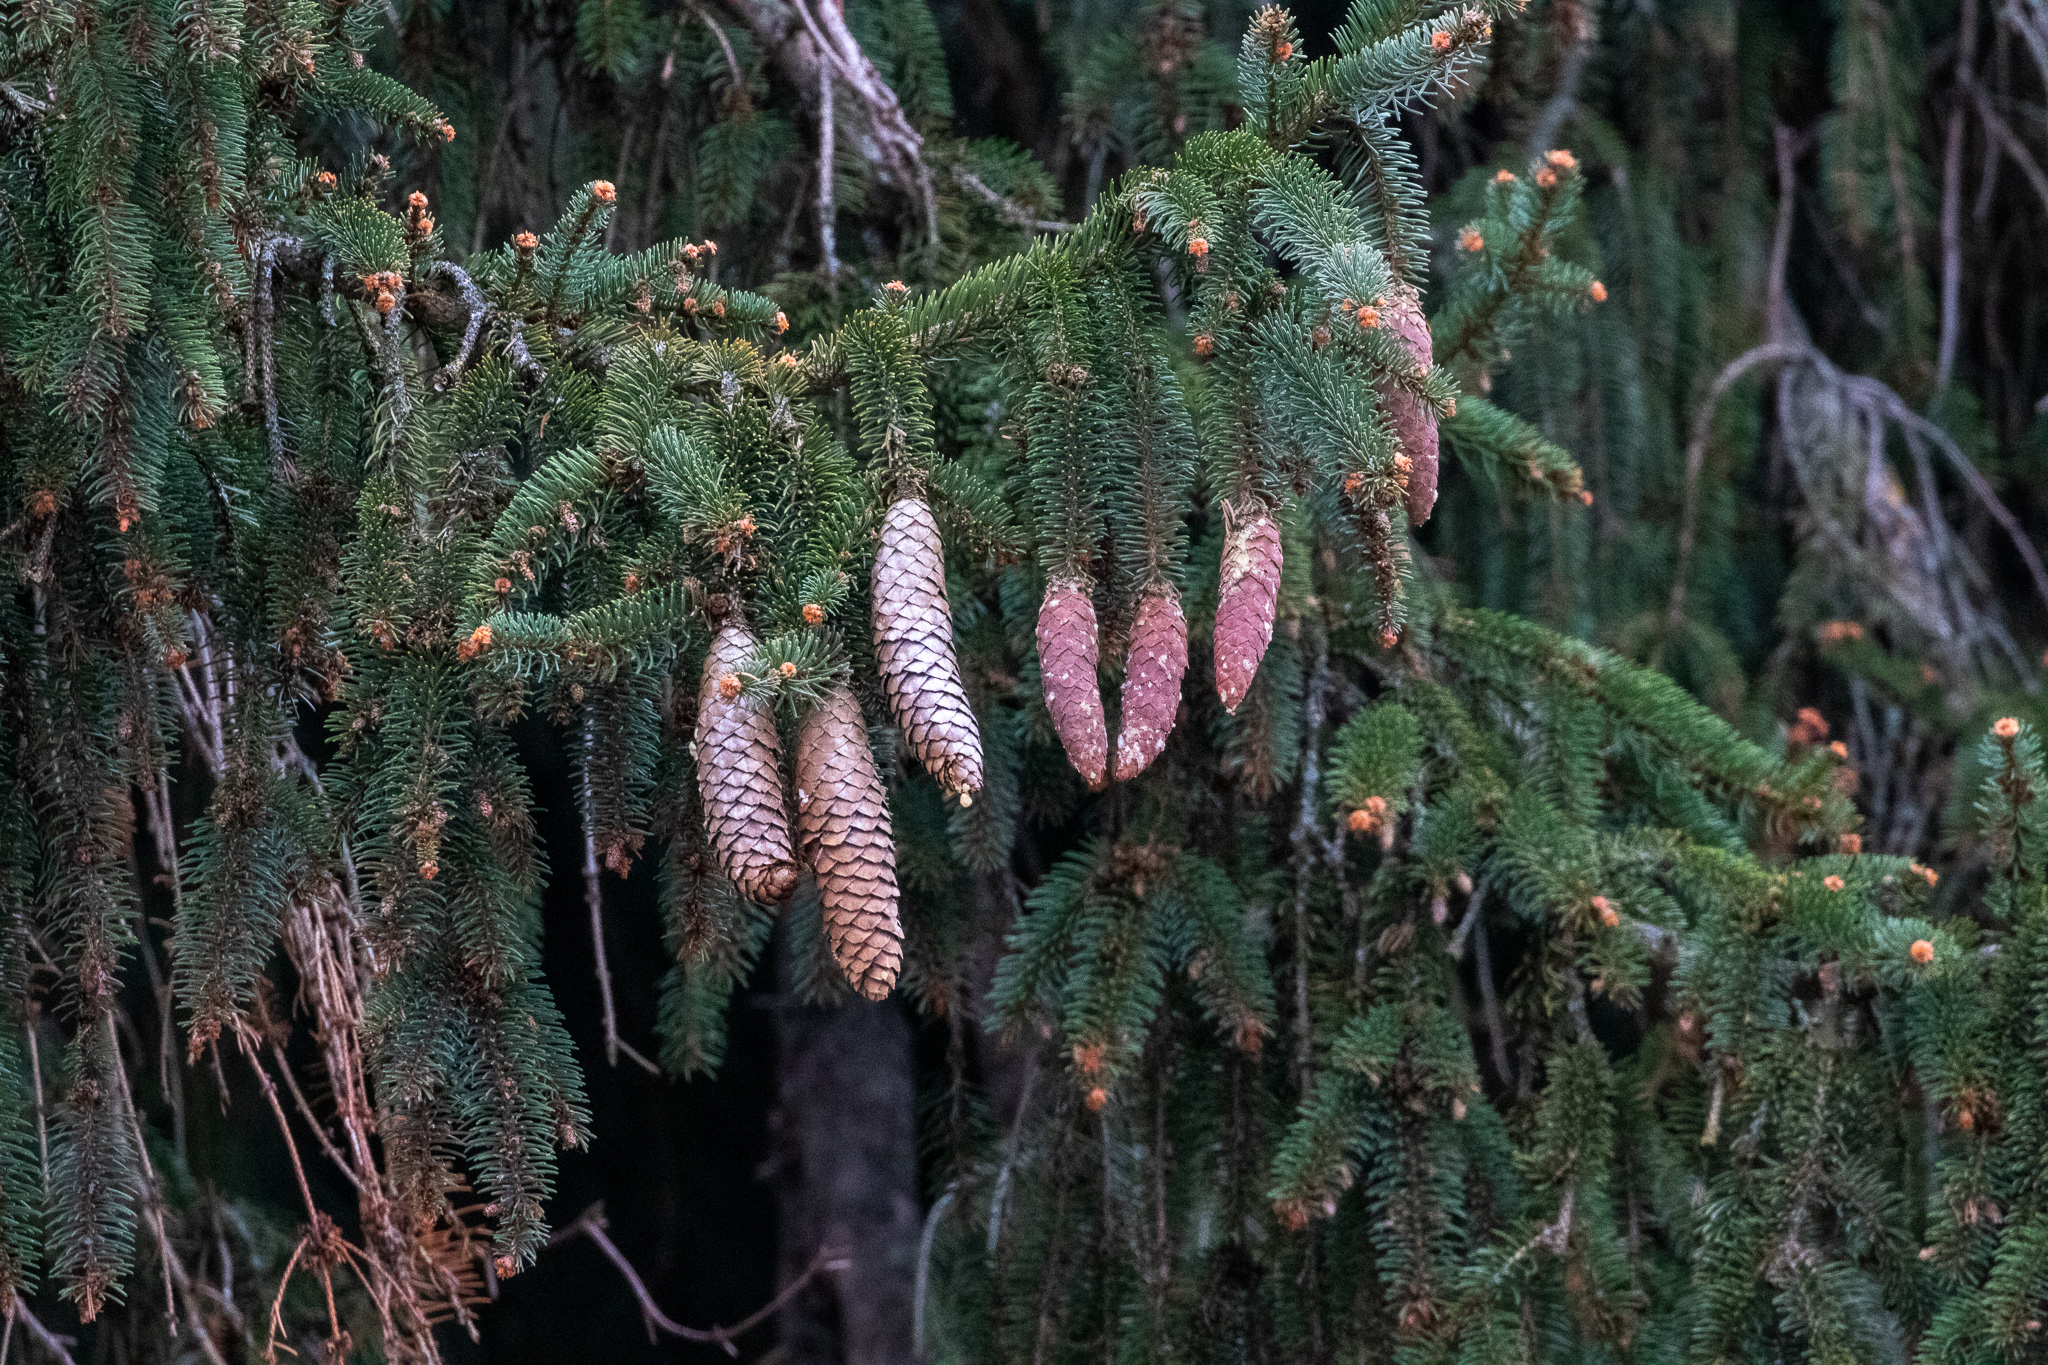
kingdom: Plantae
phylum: Tracheophyta
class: Pinopsida
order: Pinales
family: Pinaceae
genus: Picea
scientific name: Picea abies
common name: Norway spruce
